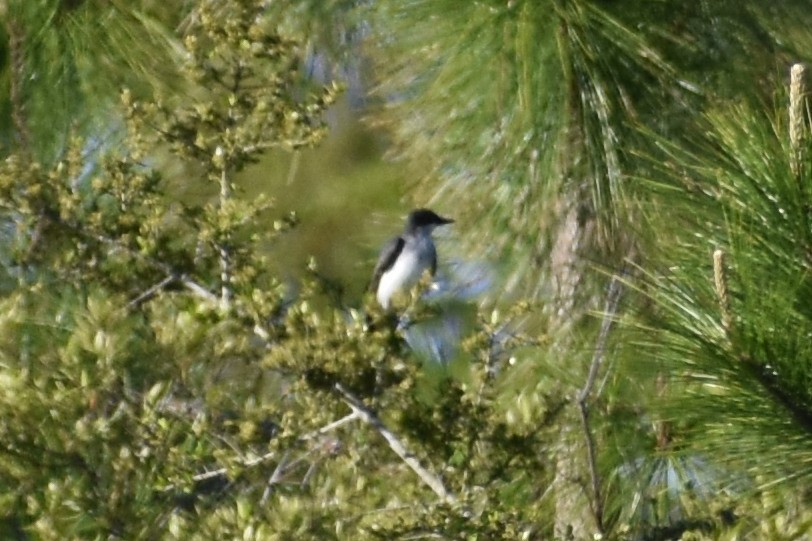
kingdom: Animalia
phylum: Chordata
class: Aves
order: Passeriformes
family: Tyrannidae
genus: Tyrannus
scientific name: Tyrannus tyrannus
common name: Eastern kingbird
